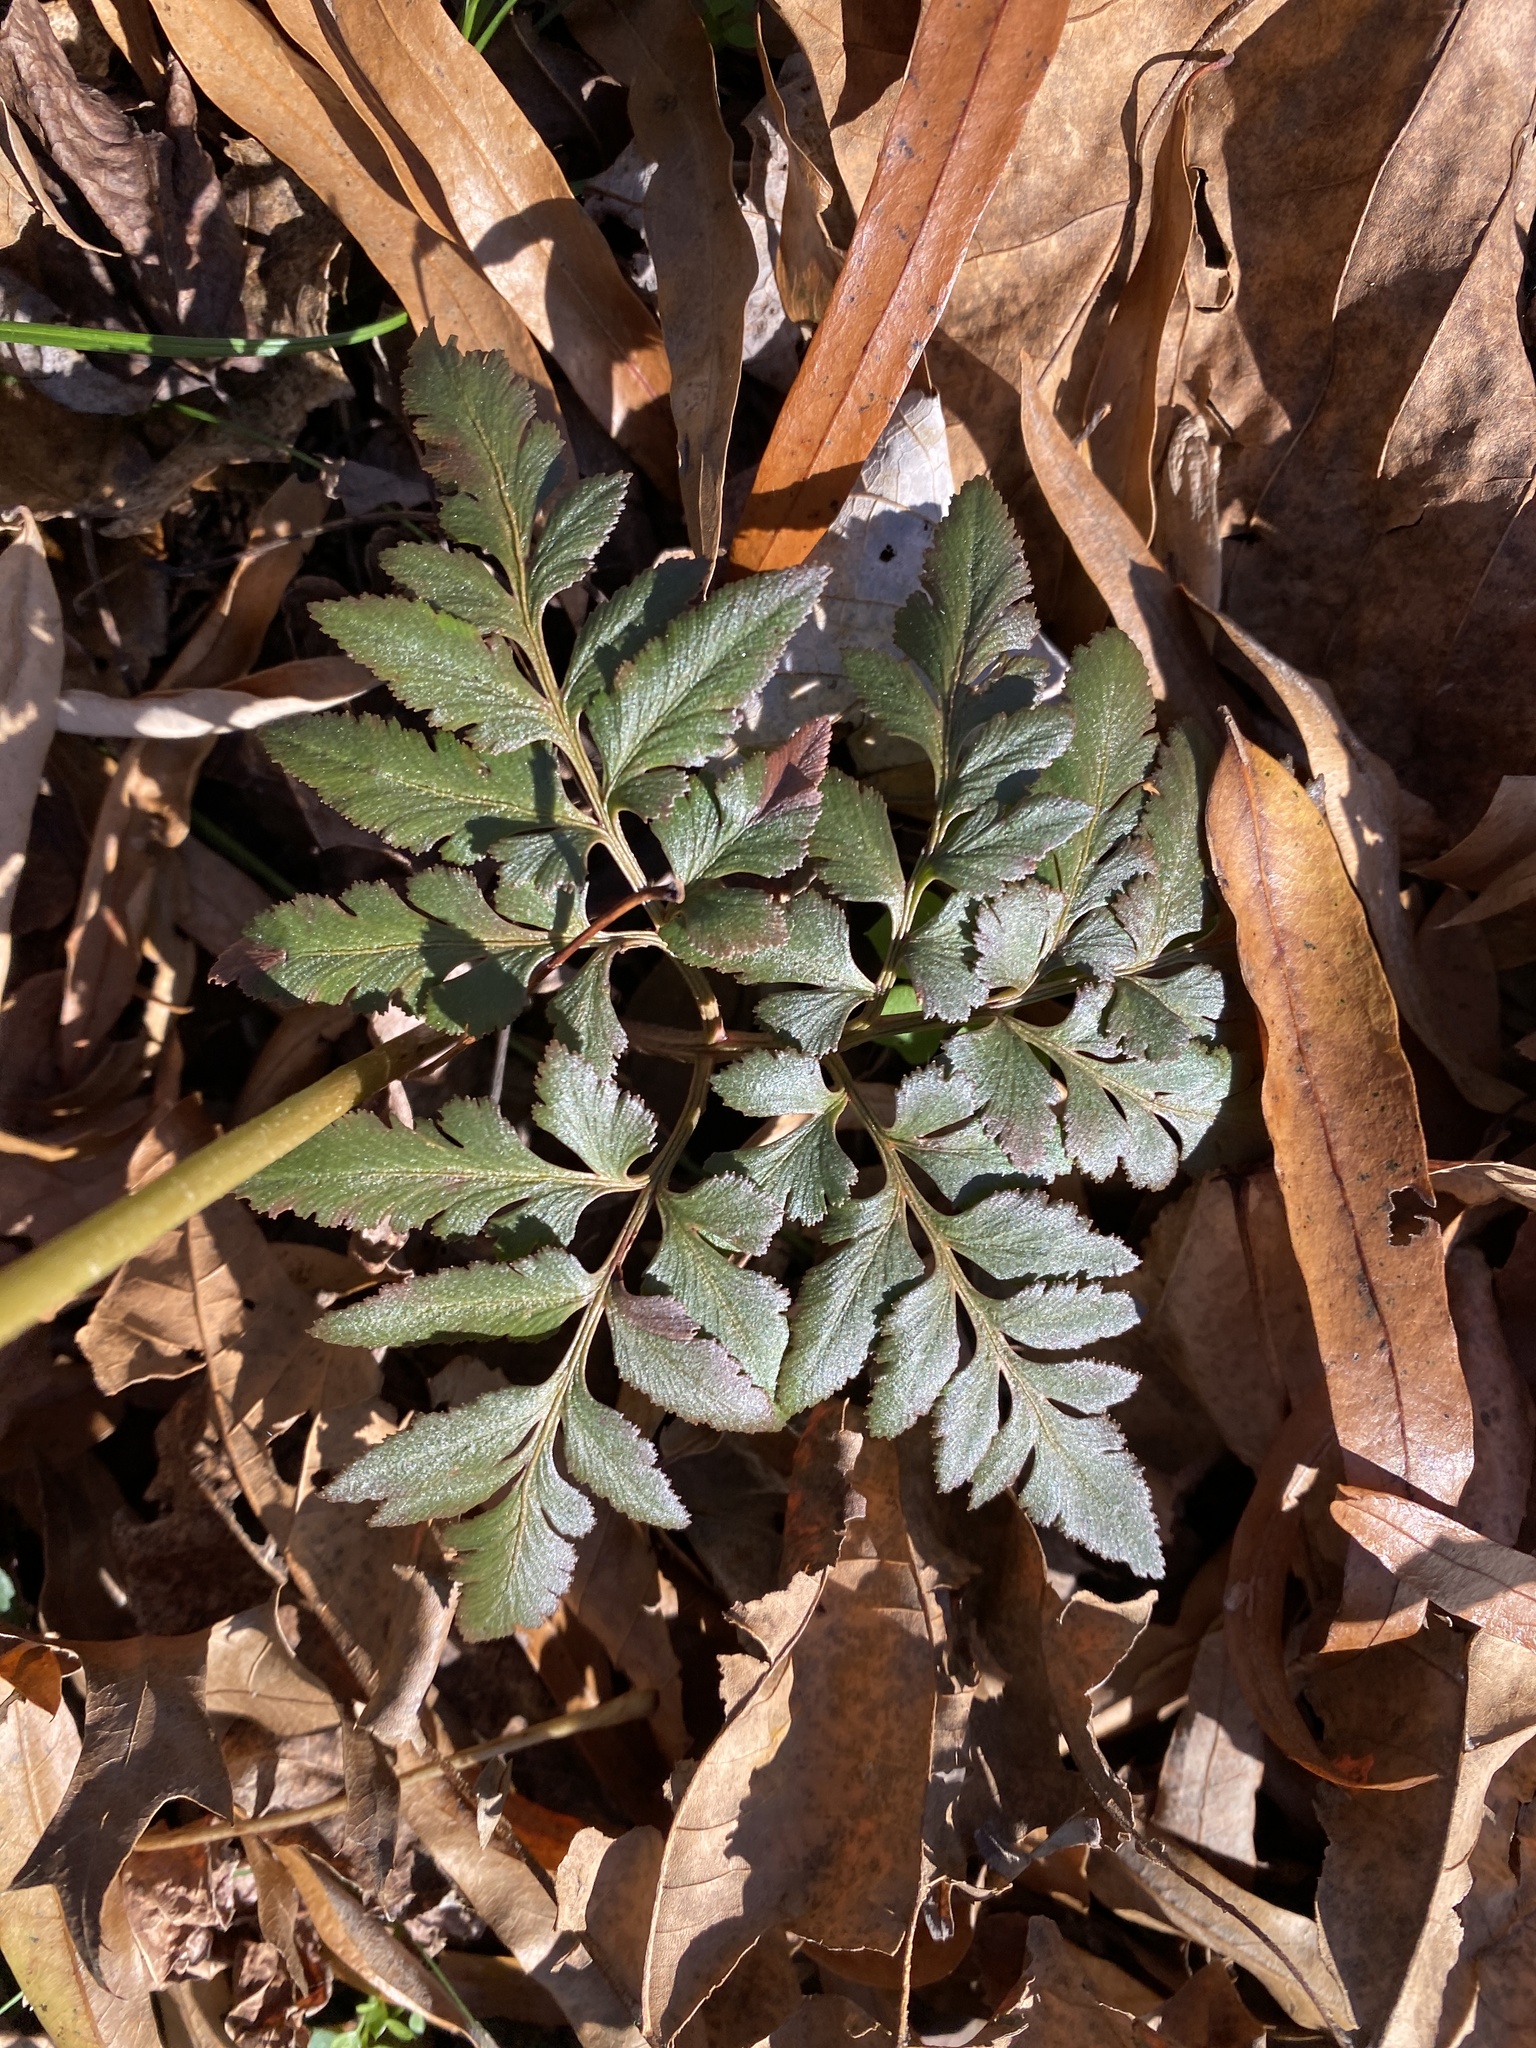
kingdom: Plantae
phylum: Tracheophyta
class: Polypodiopsida
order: Ophioglossales
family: Ophioglossaceae
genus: Sceptridium
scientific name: Sceptridium dissectum
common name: Cut-leaved grapefern
